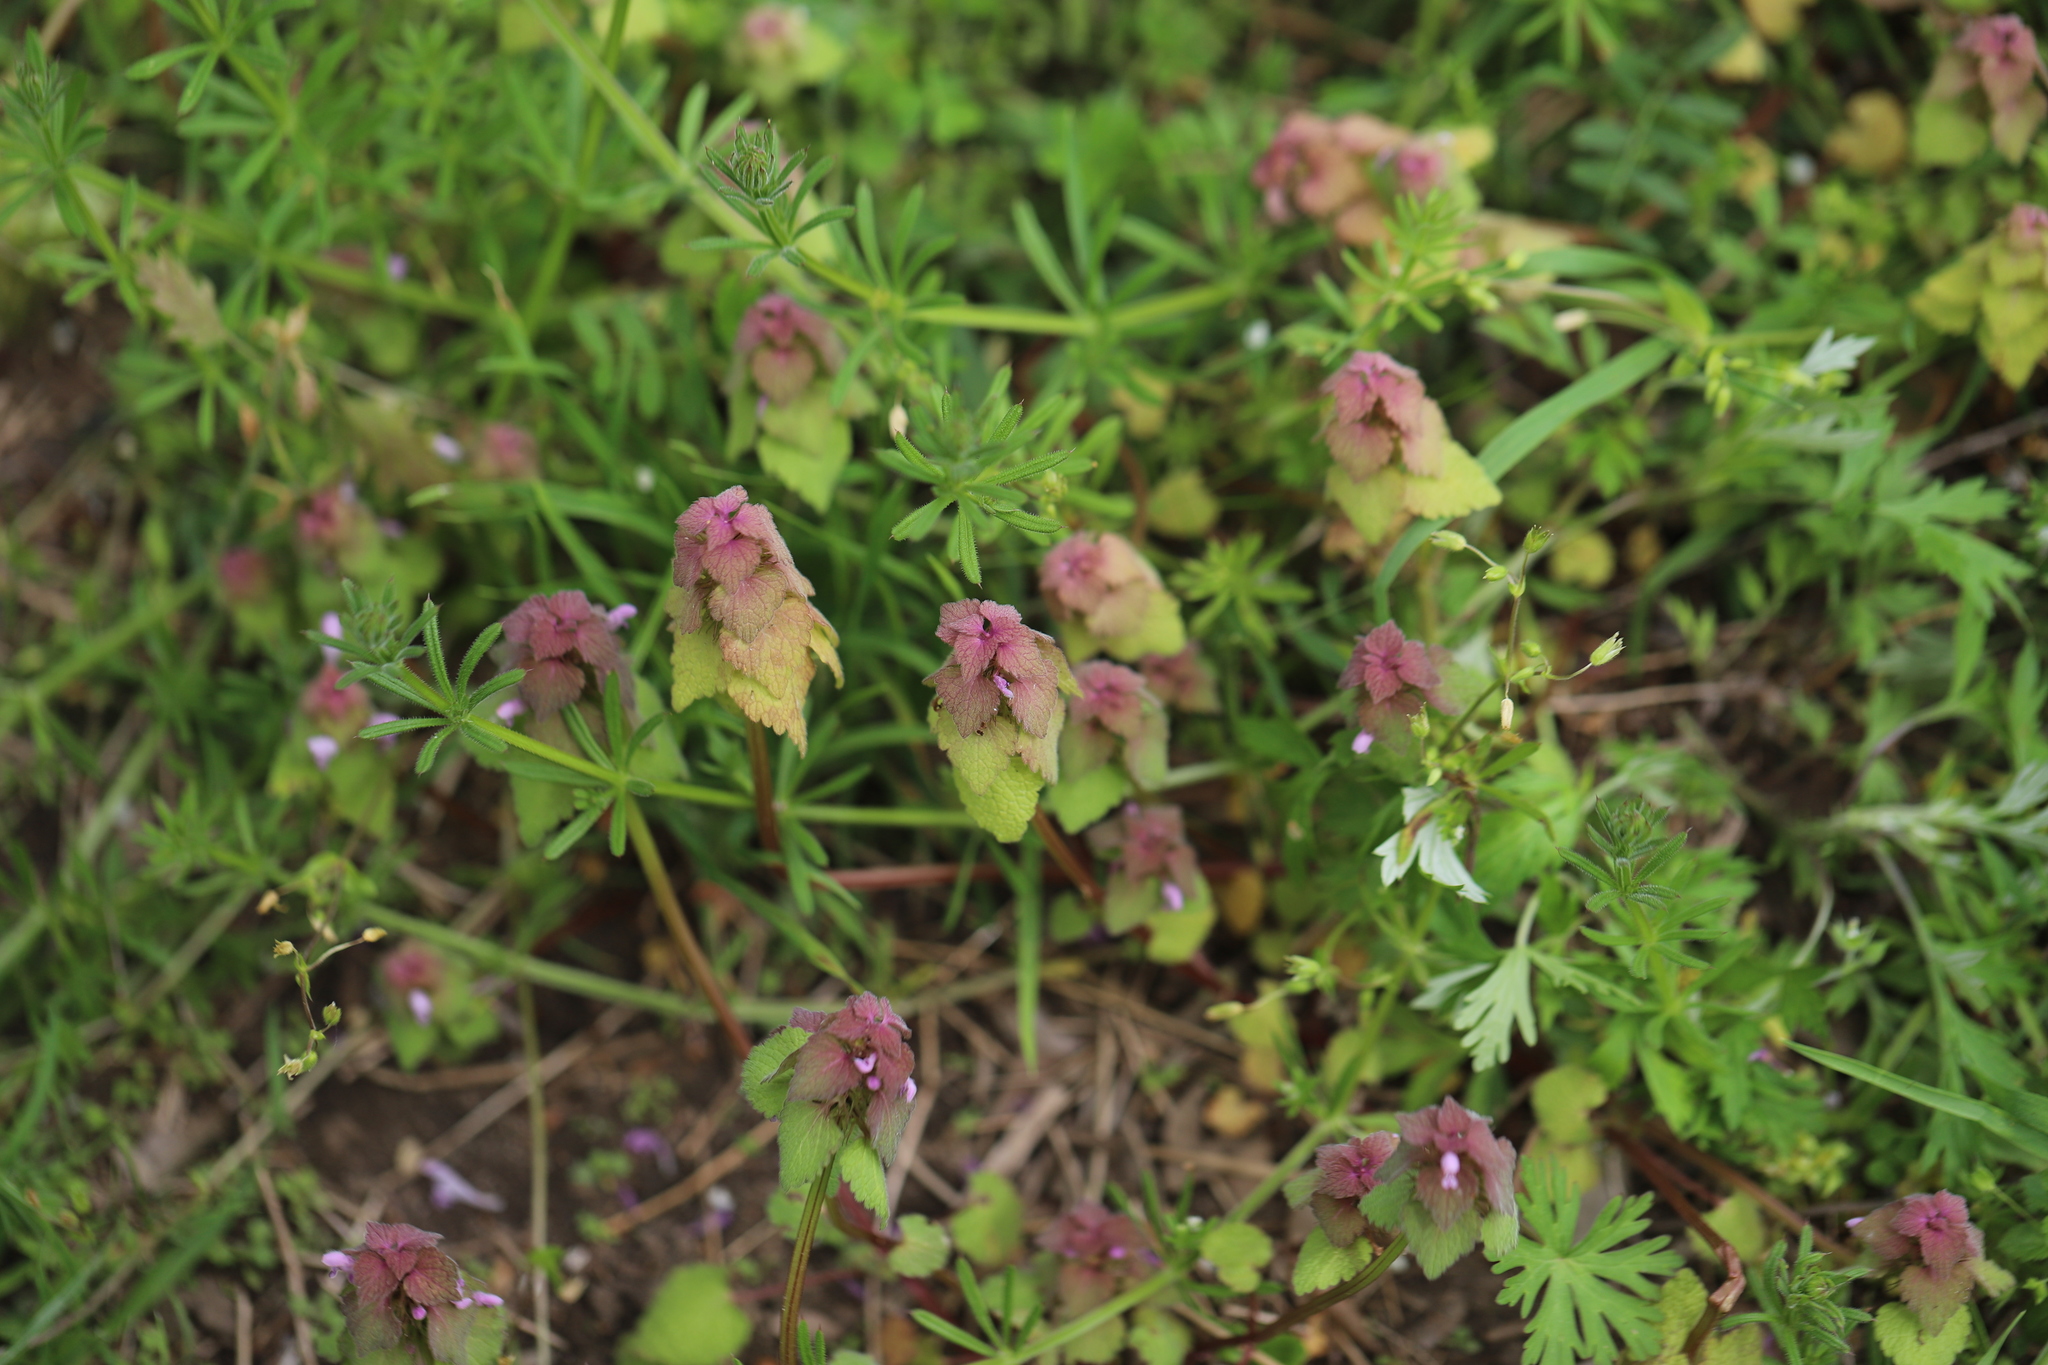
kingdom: Plantae
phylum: Tracheophyta
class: Magnoliopsida
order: Lamiales
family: Lamiaceae
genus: Lamium
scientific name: Lamium purpureum
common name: Red dead-nettle
